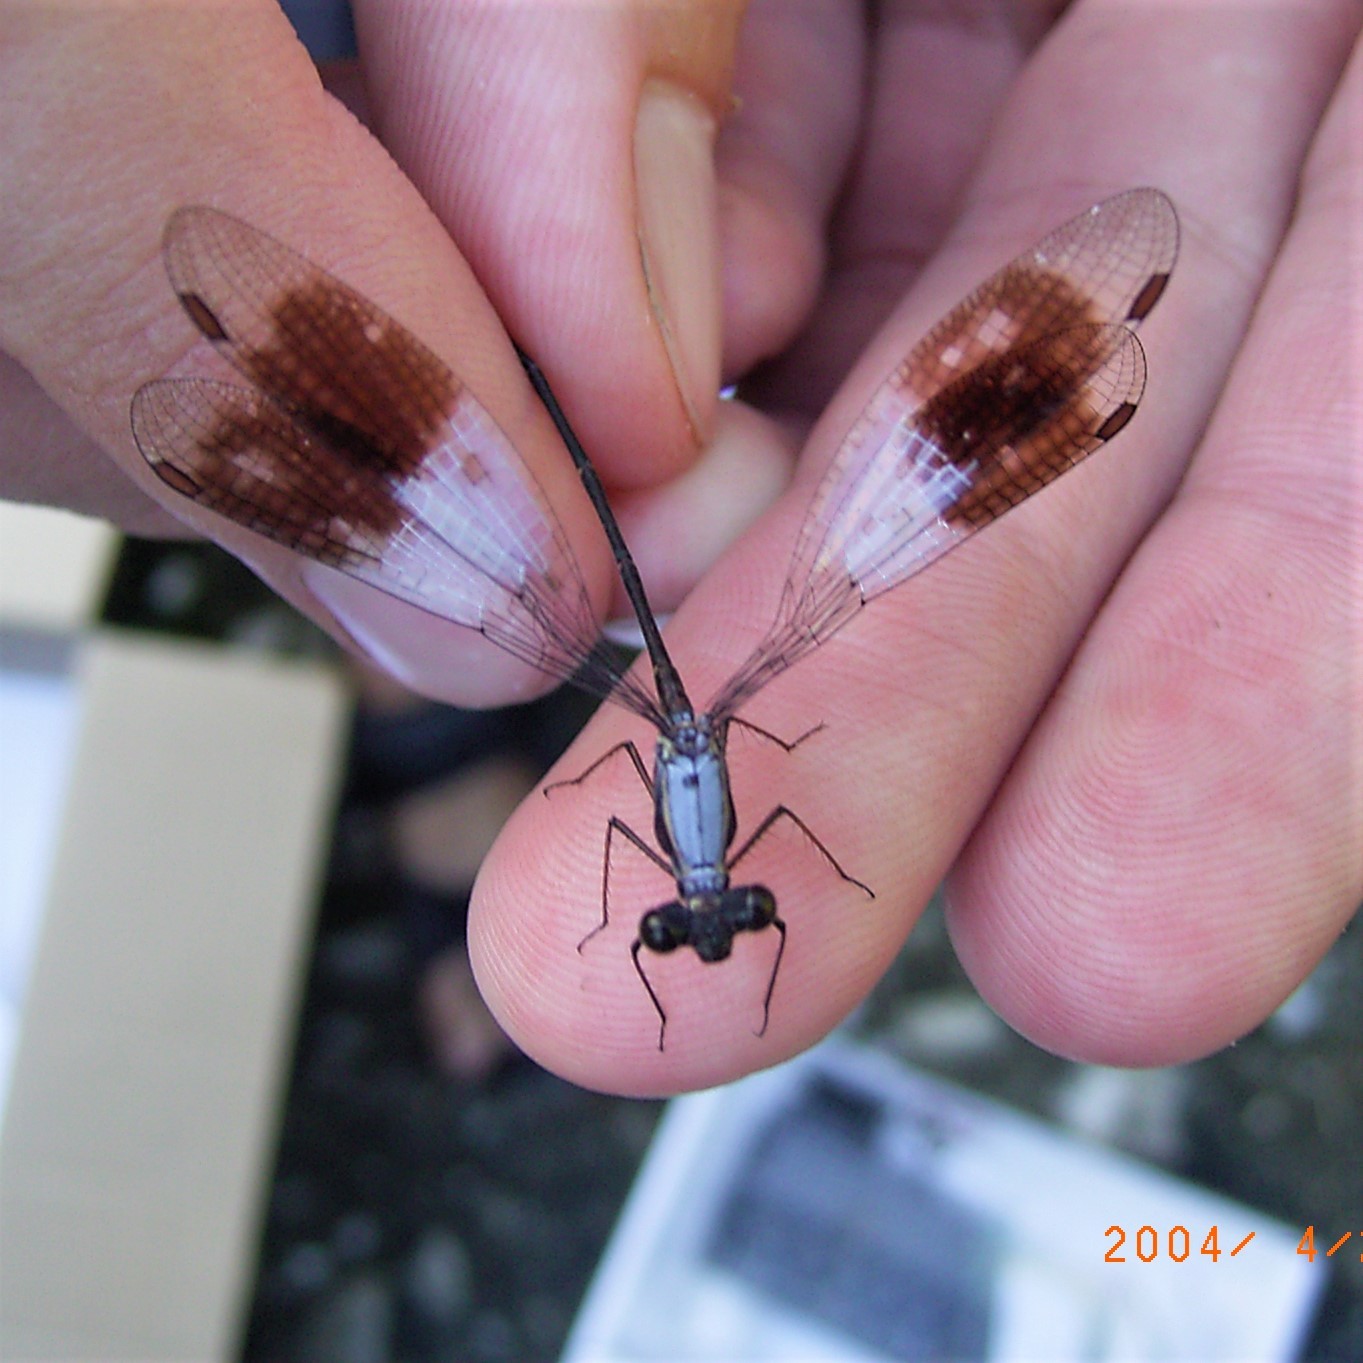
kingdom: Animalia
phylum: Arthropoda
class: Insecta
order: Odonata
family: Synlestidae
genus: Chlorolestes
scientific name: Chlorolestes umbratus
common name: White malachite
